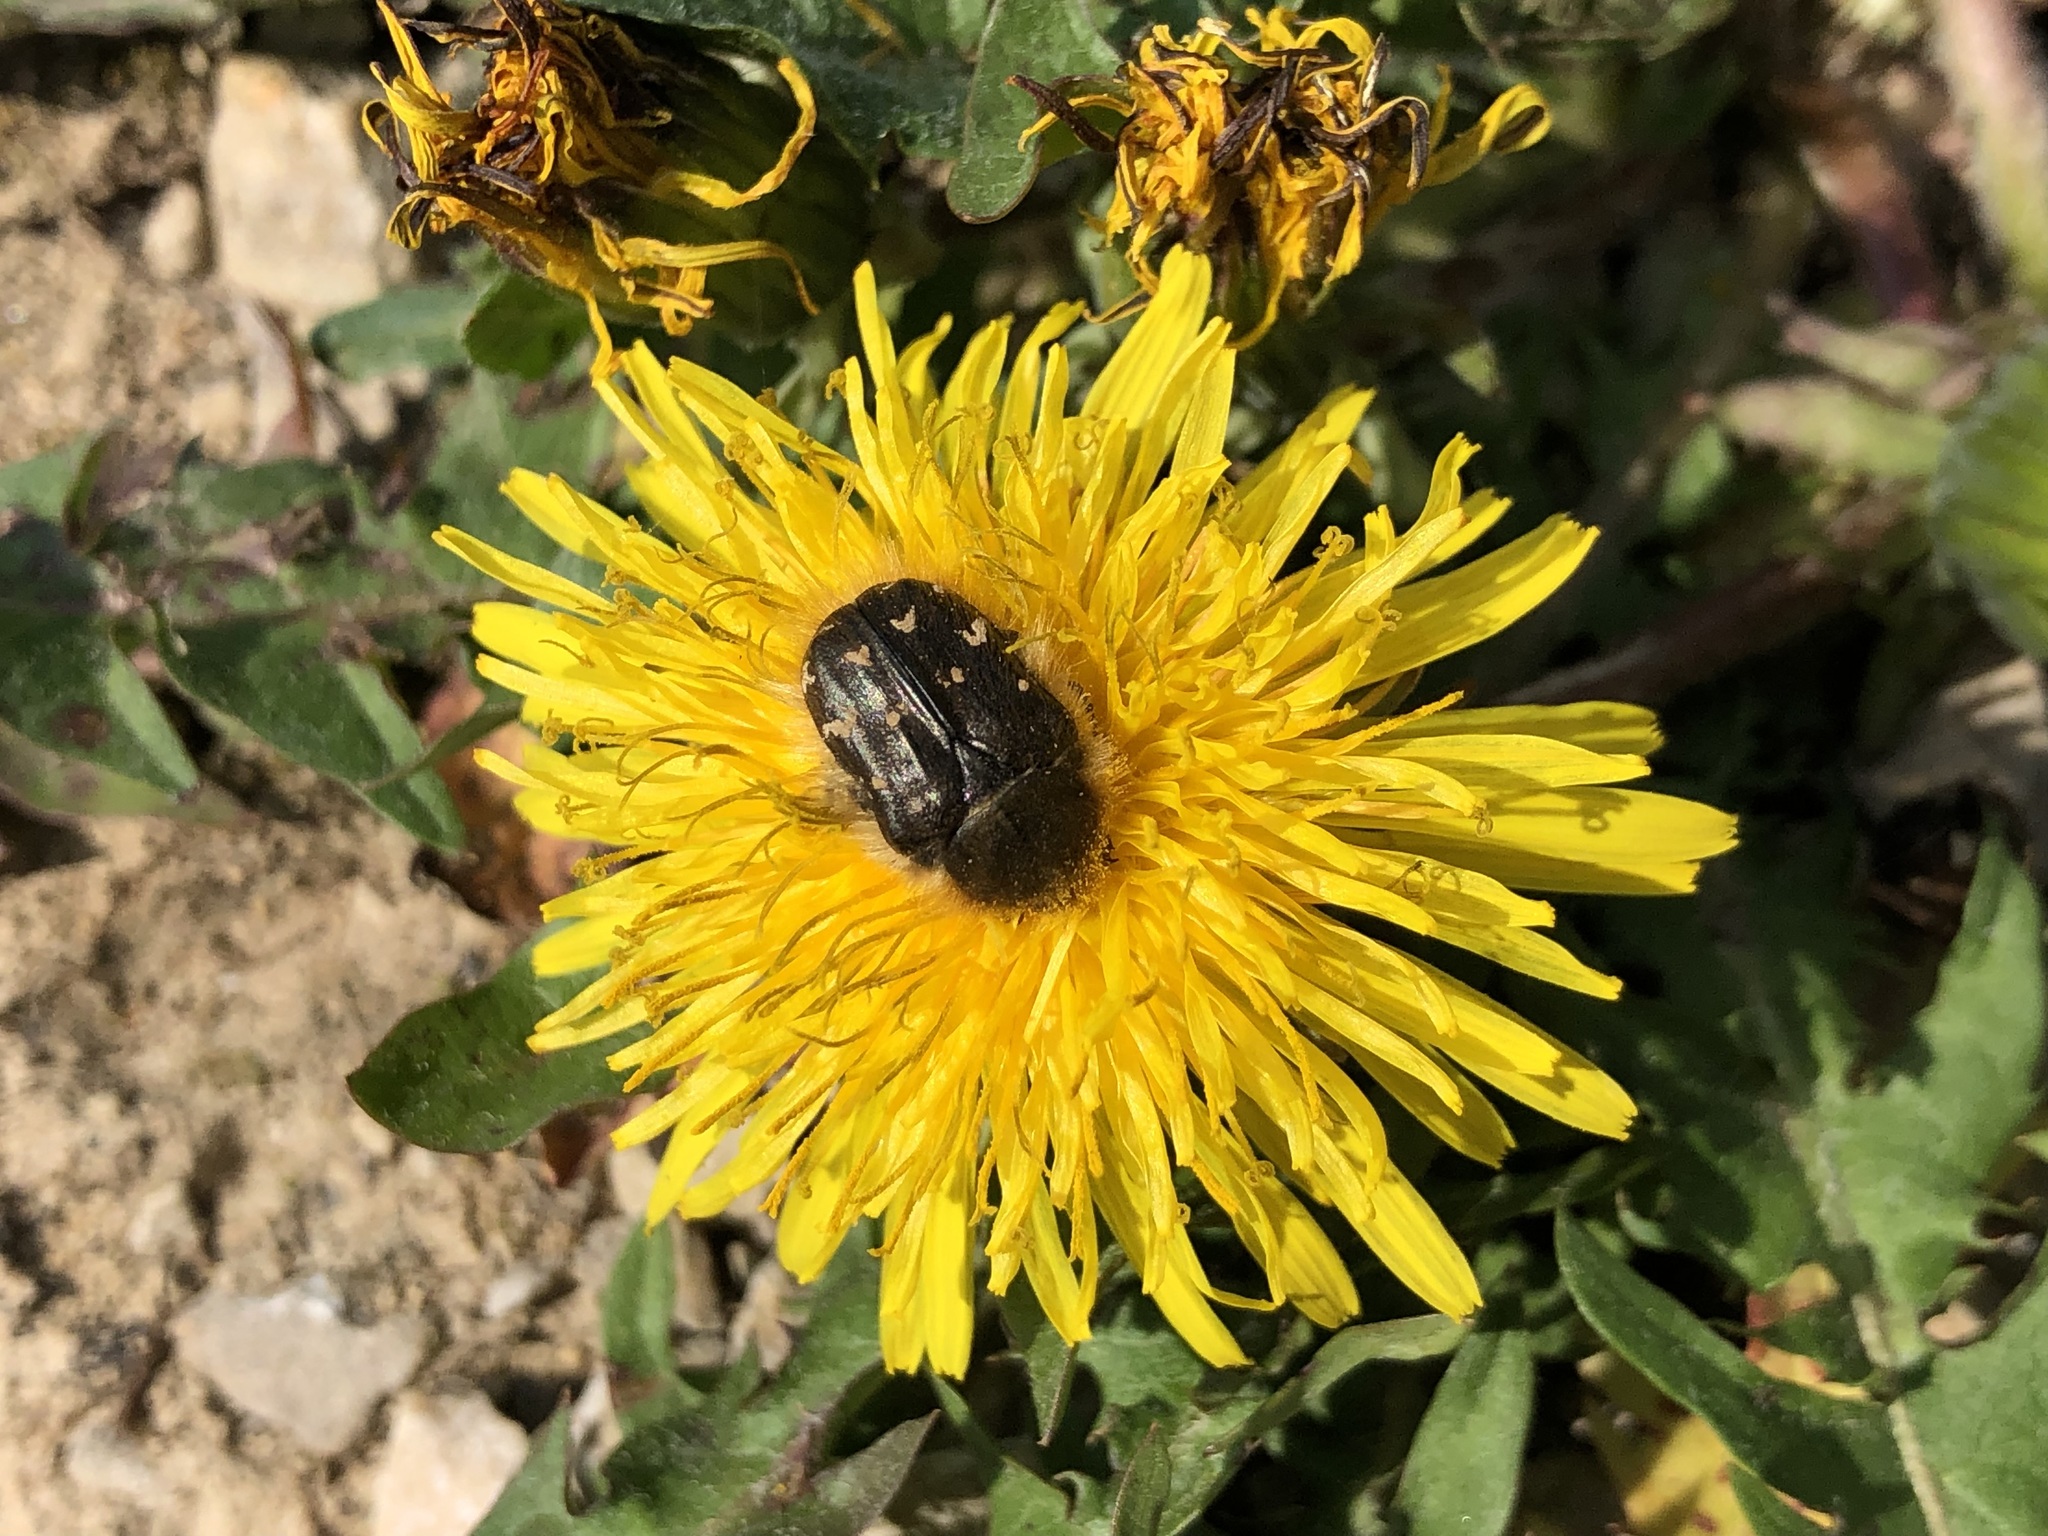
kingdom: Animalia
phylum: Arthropoda
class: Insecta
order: Coleoptera
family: Scarabaeidae
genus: Tropinota
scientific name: Tropinota hirta
